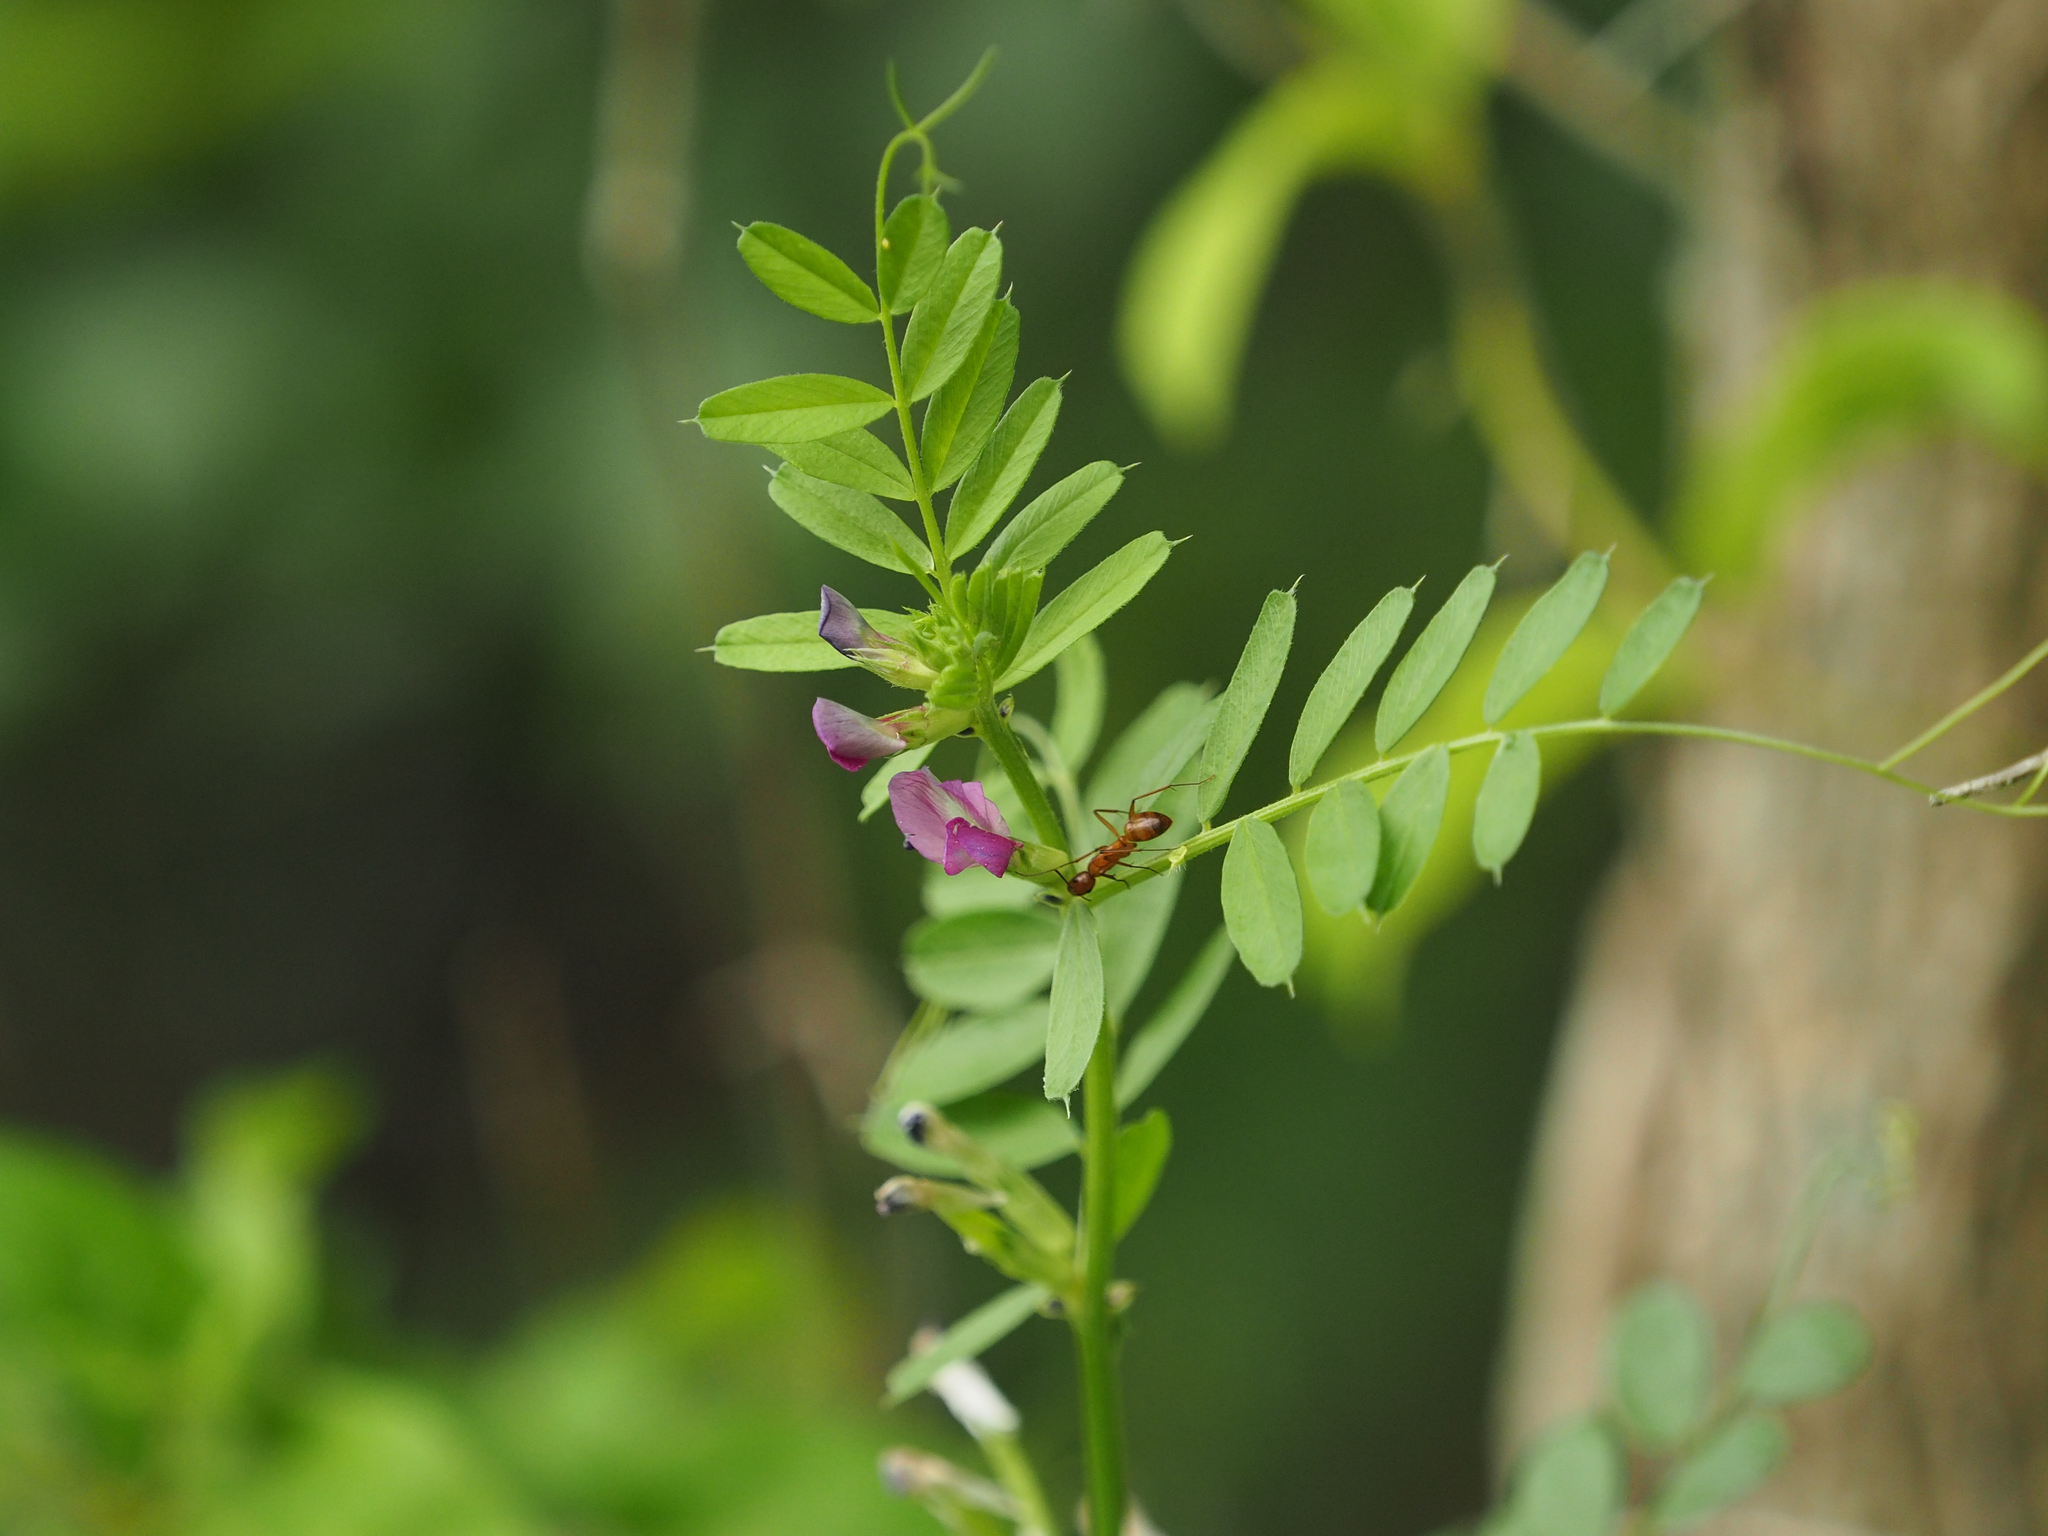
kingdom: Plantae
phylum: Tracheophyta
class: Magnoliopsida
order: Fabales
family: Fabaceae
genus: Vicia
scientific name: Vicia sativa
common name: Garden vetch
